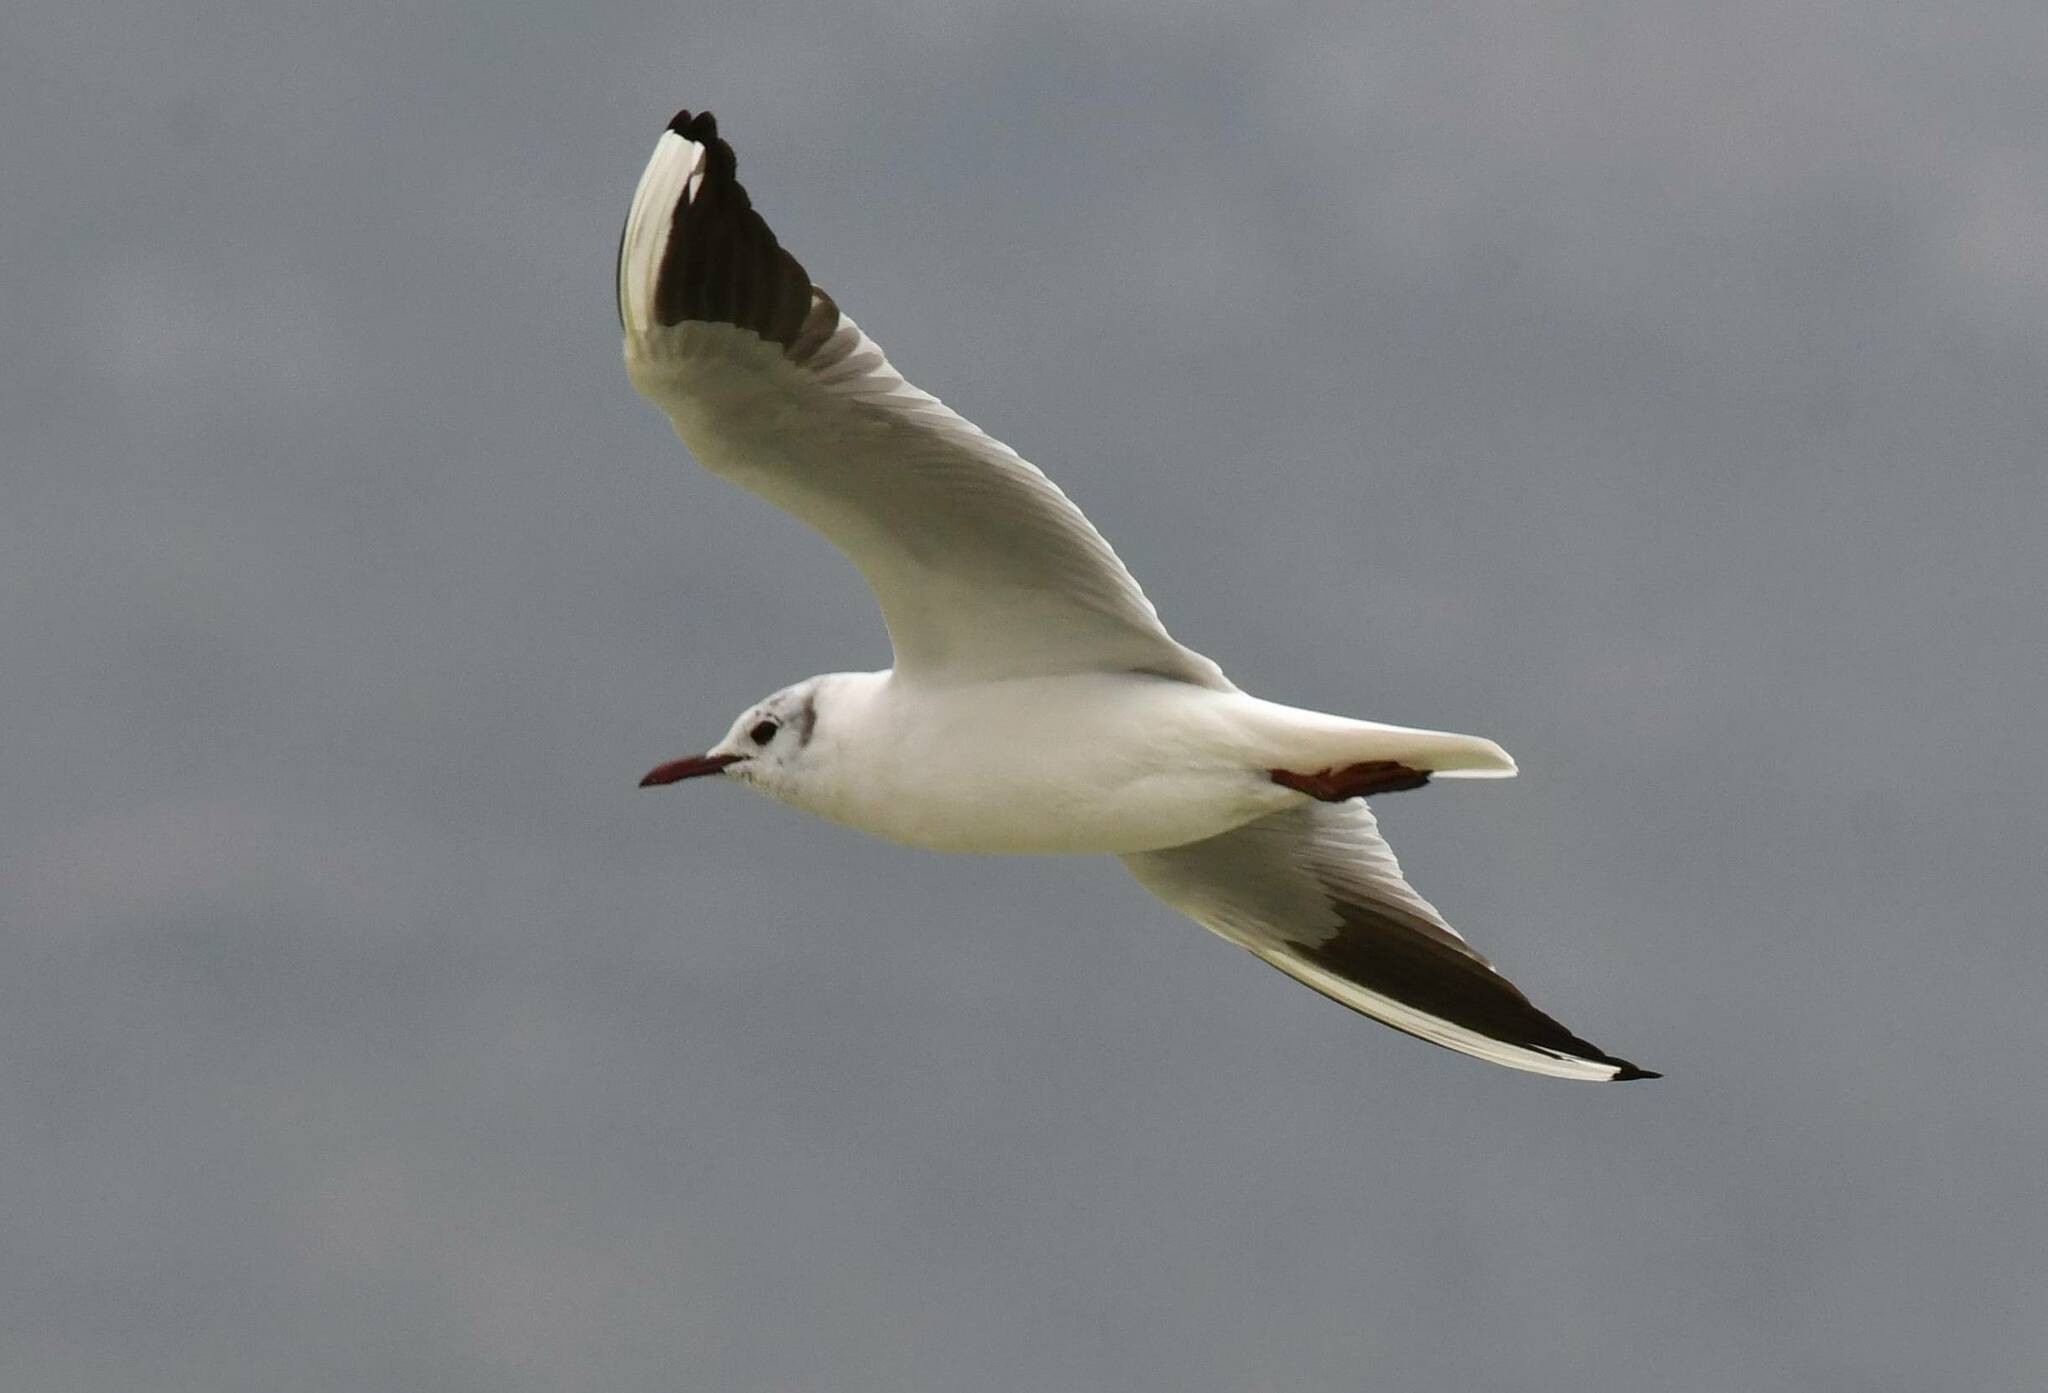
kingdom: Animalia
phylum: Chordata
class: Aves
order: Charadriiformes
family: Laridae
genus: Chroicocephalus
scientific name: Chroicocephalus ridibundus
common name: Black-headed gull
